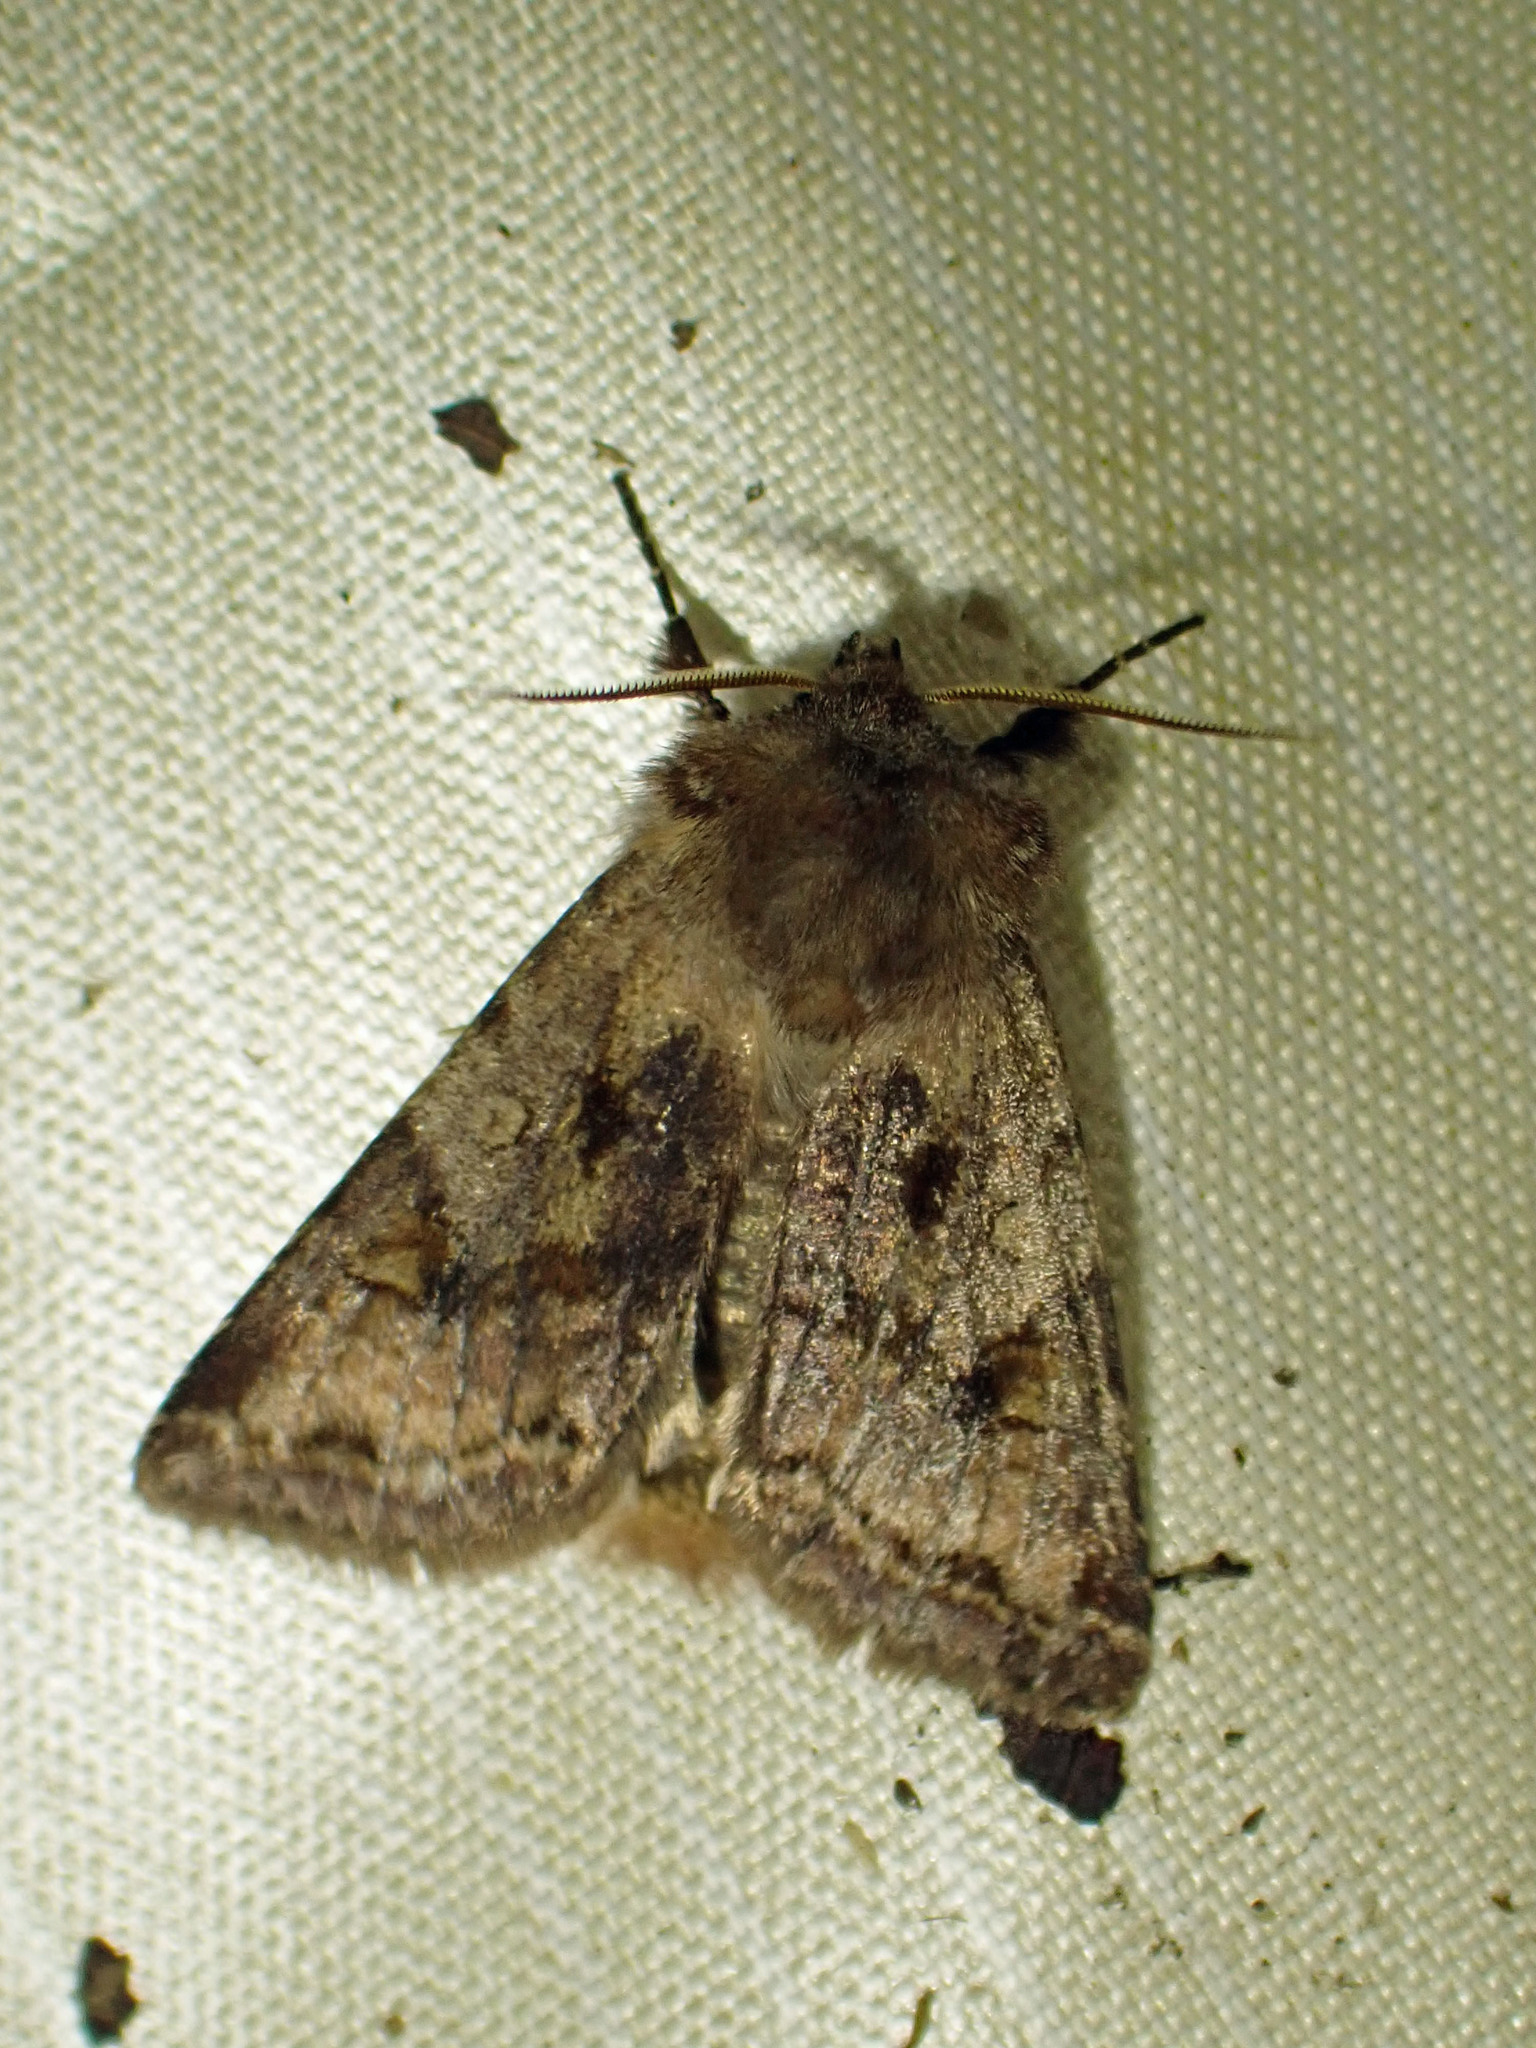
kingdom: Animalia
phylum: Arthropoda
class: Insecta
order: Lepidoptera
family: Noctuidae
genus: Cerastis
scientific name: Cerastis salicarum
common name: Willow dart
